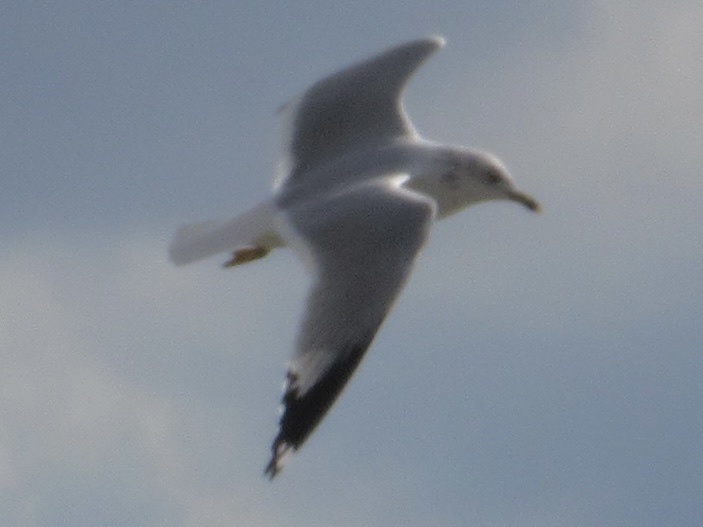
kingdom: Animalia
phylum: Chordata
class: Aves
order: Charadriiformes
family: Laridae
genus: Larus
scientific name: Larus delawarensis
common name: Ring-billed gull
